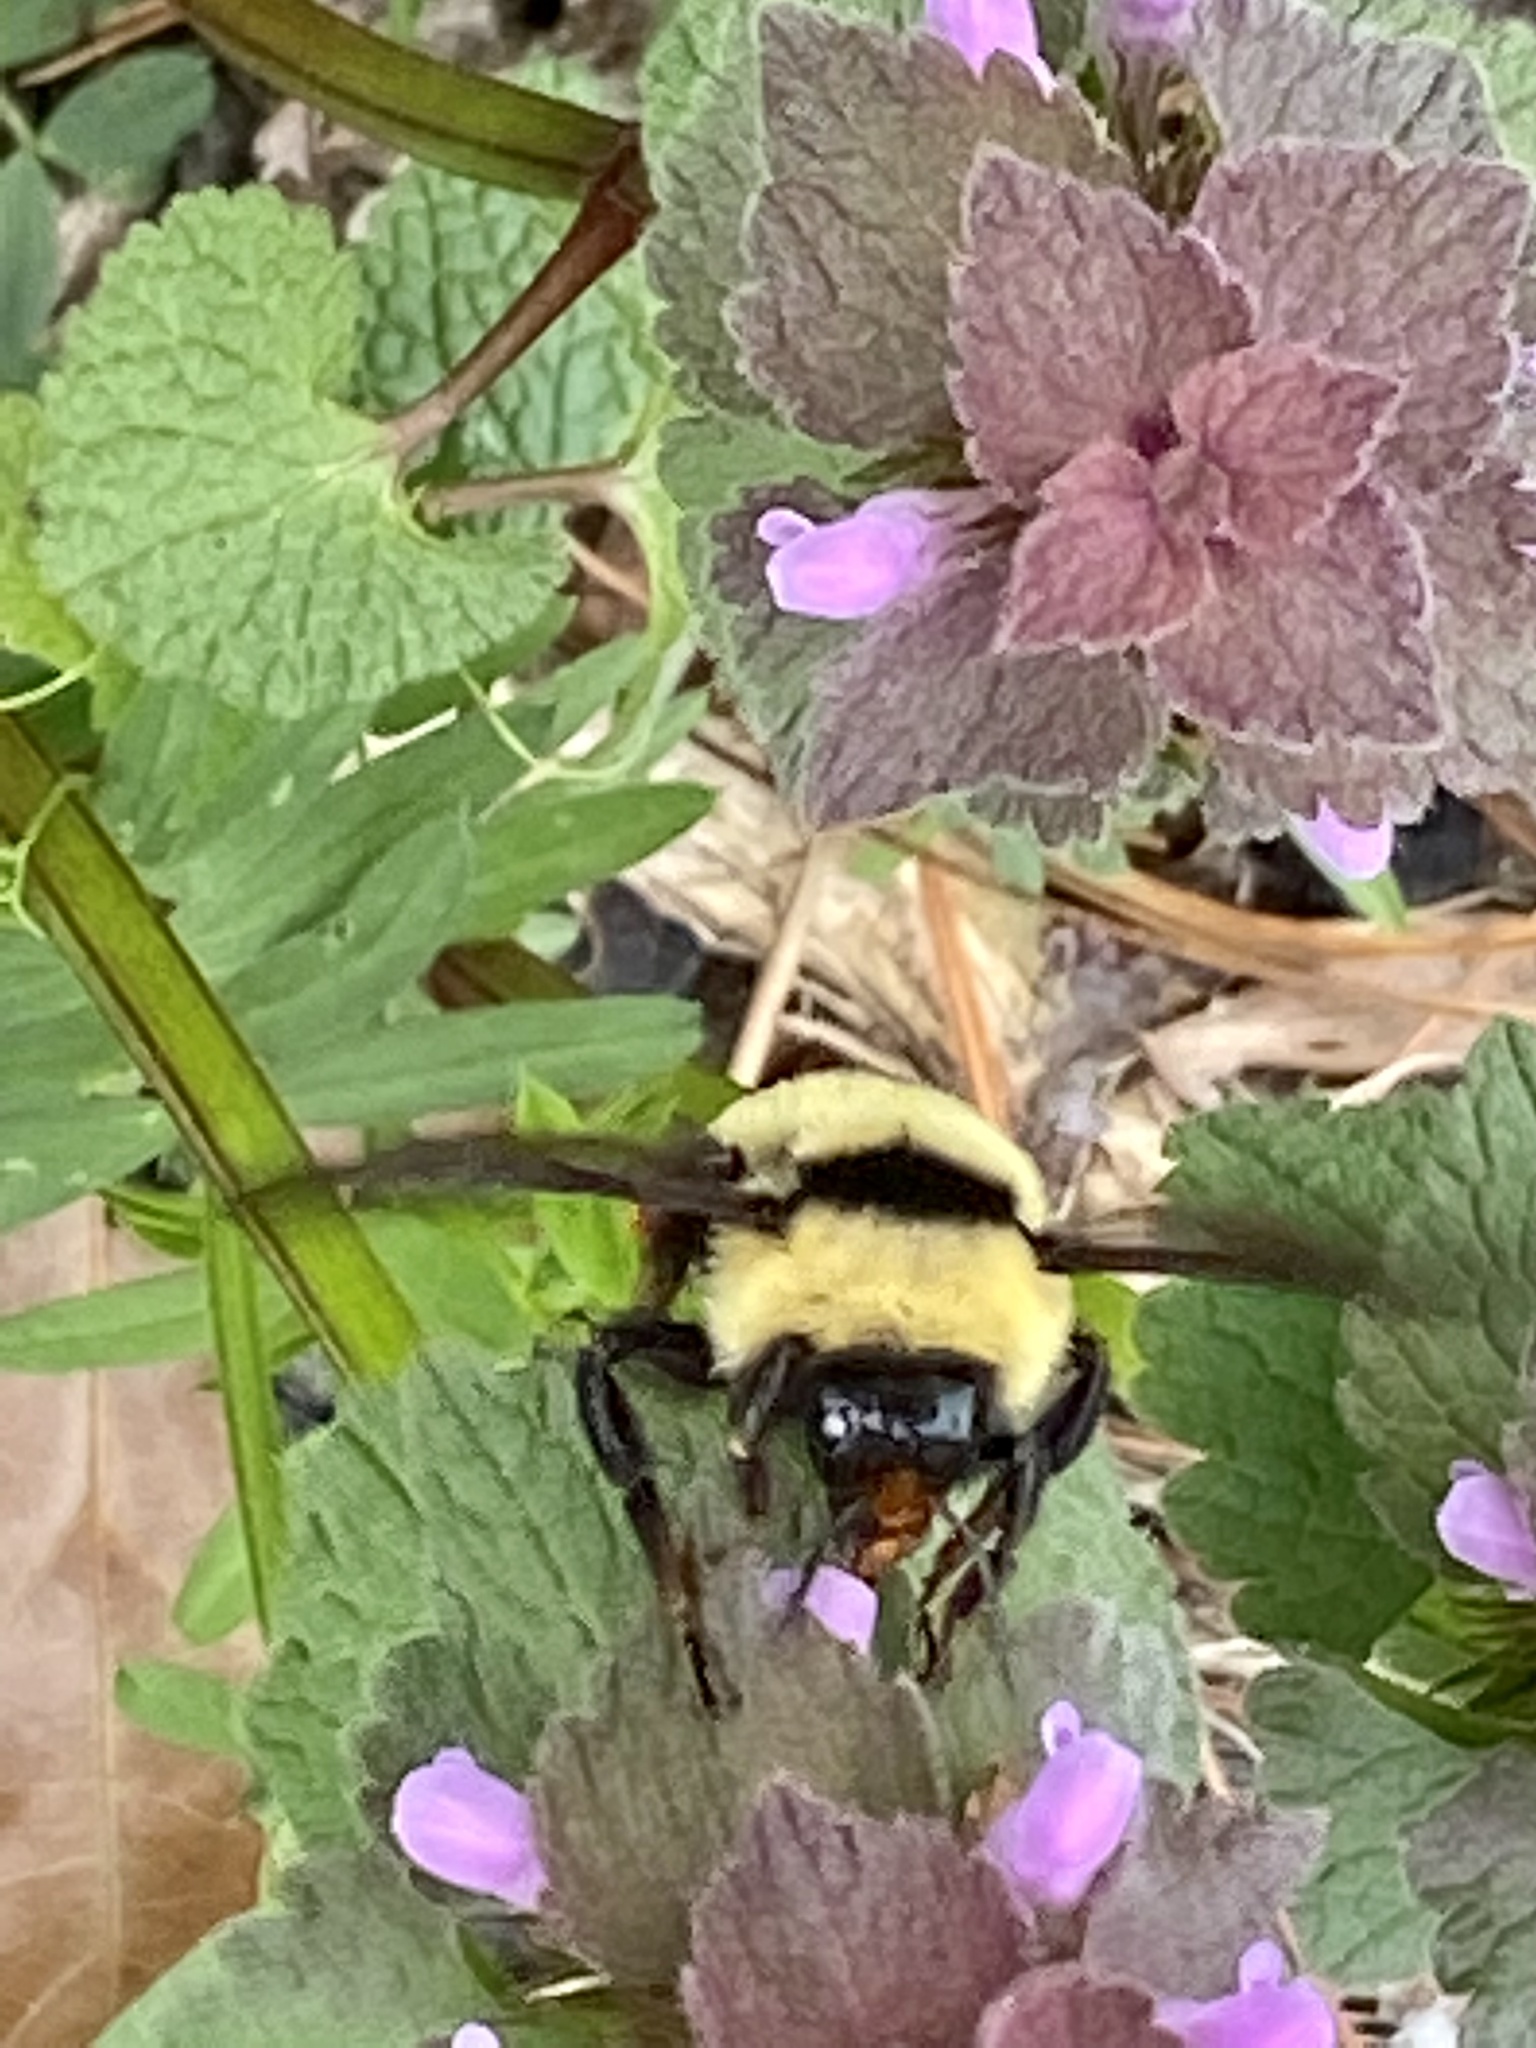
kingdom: Animalia
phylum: Arthropoda
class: Insecta
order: Hymenoptera
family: Apidae
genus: Bombus
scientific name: Bombus fervidus
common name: Yellow bumble bee
